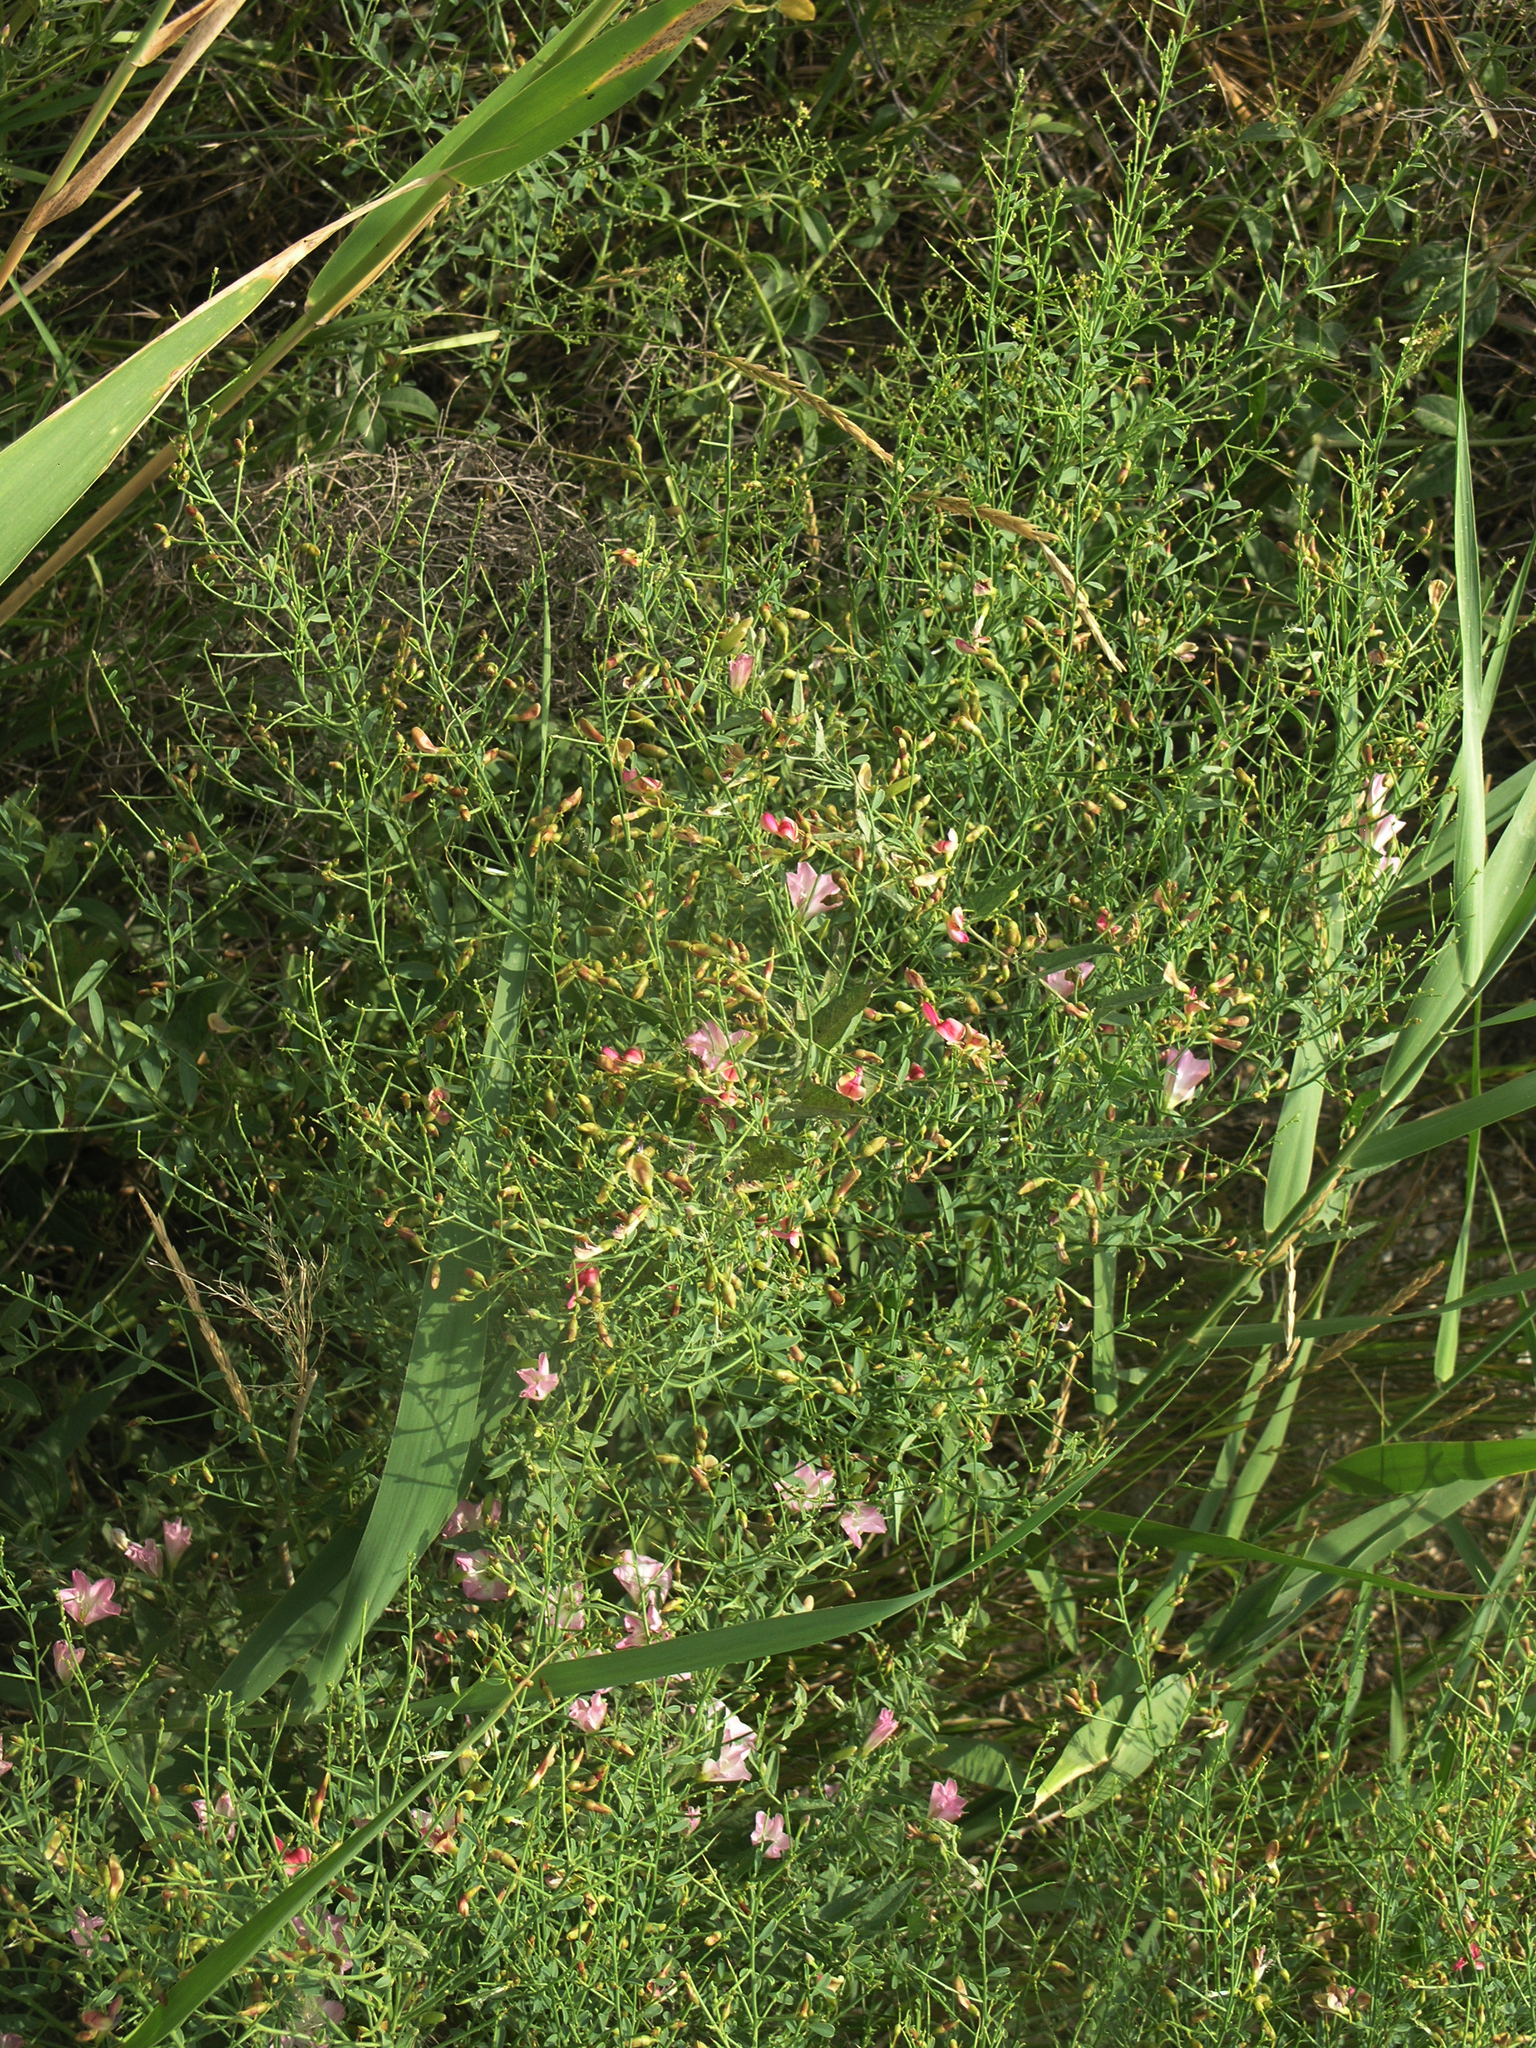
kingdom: Plantae
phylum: Tracheophyta
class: Magnoliopsida
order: Fabales
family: Fabaceae
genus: Alhagi
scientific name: Alhagi pseudalhagi
